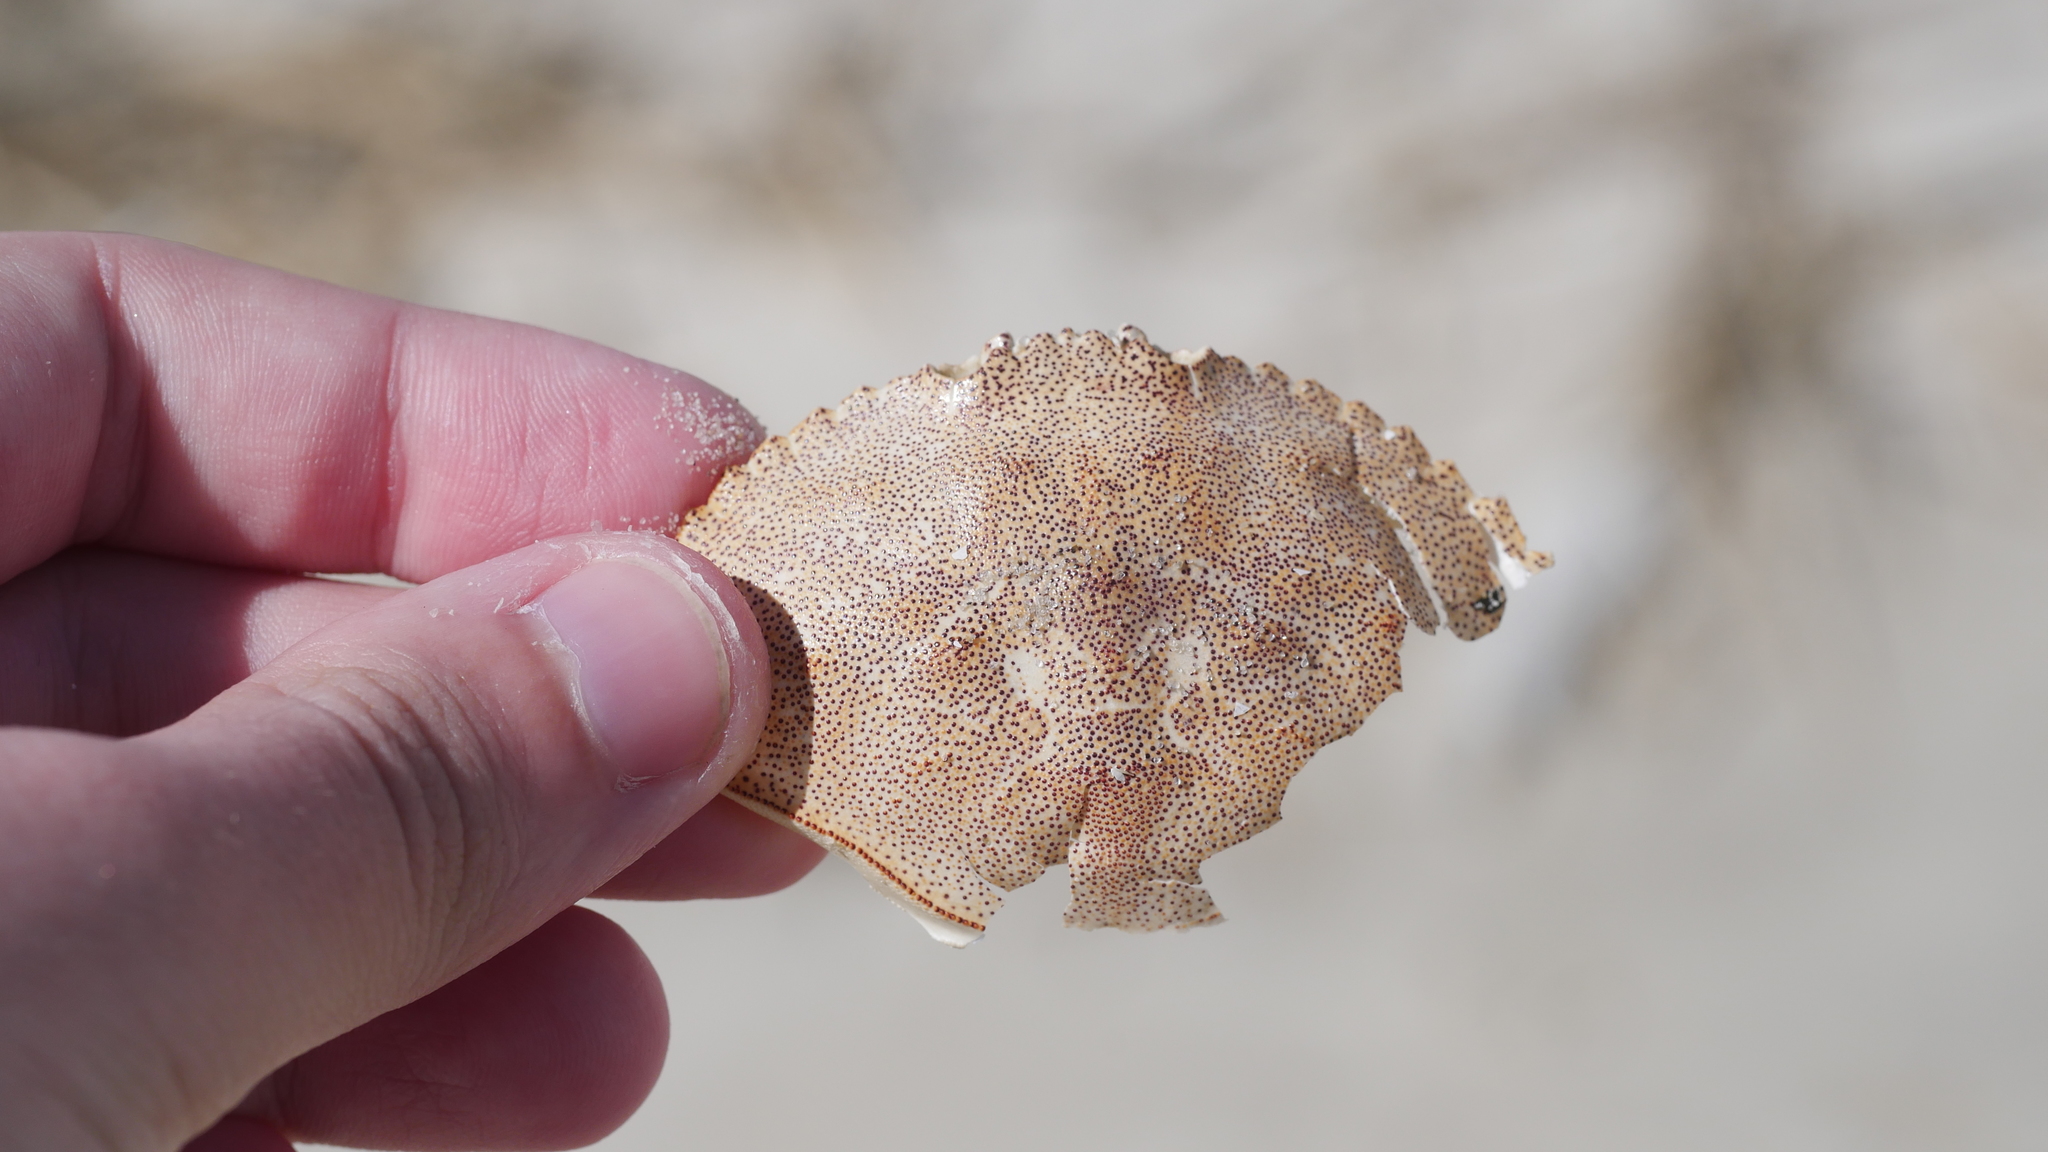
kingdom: Animalia
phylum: Arthropoda
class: Malacostraca
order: Decapoda
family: Cancridae
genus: Cancer
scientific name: Cancer irroratus
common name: Atlantic rock crab
